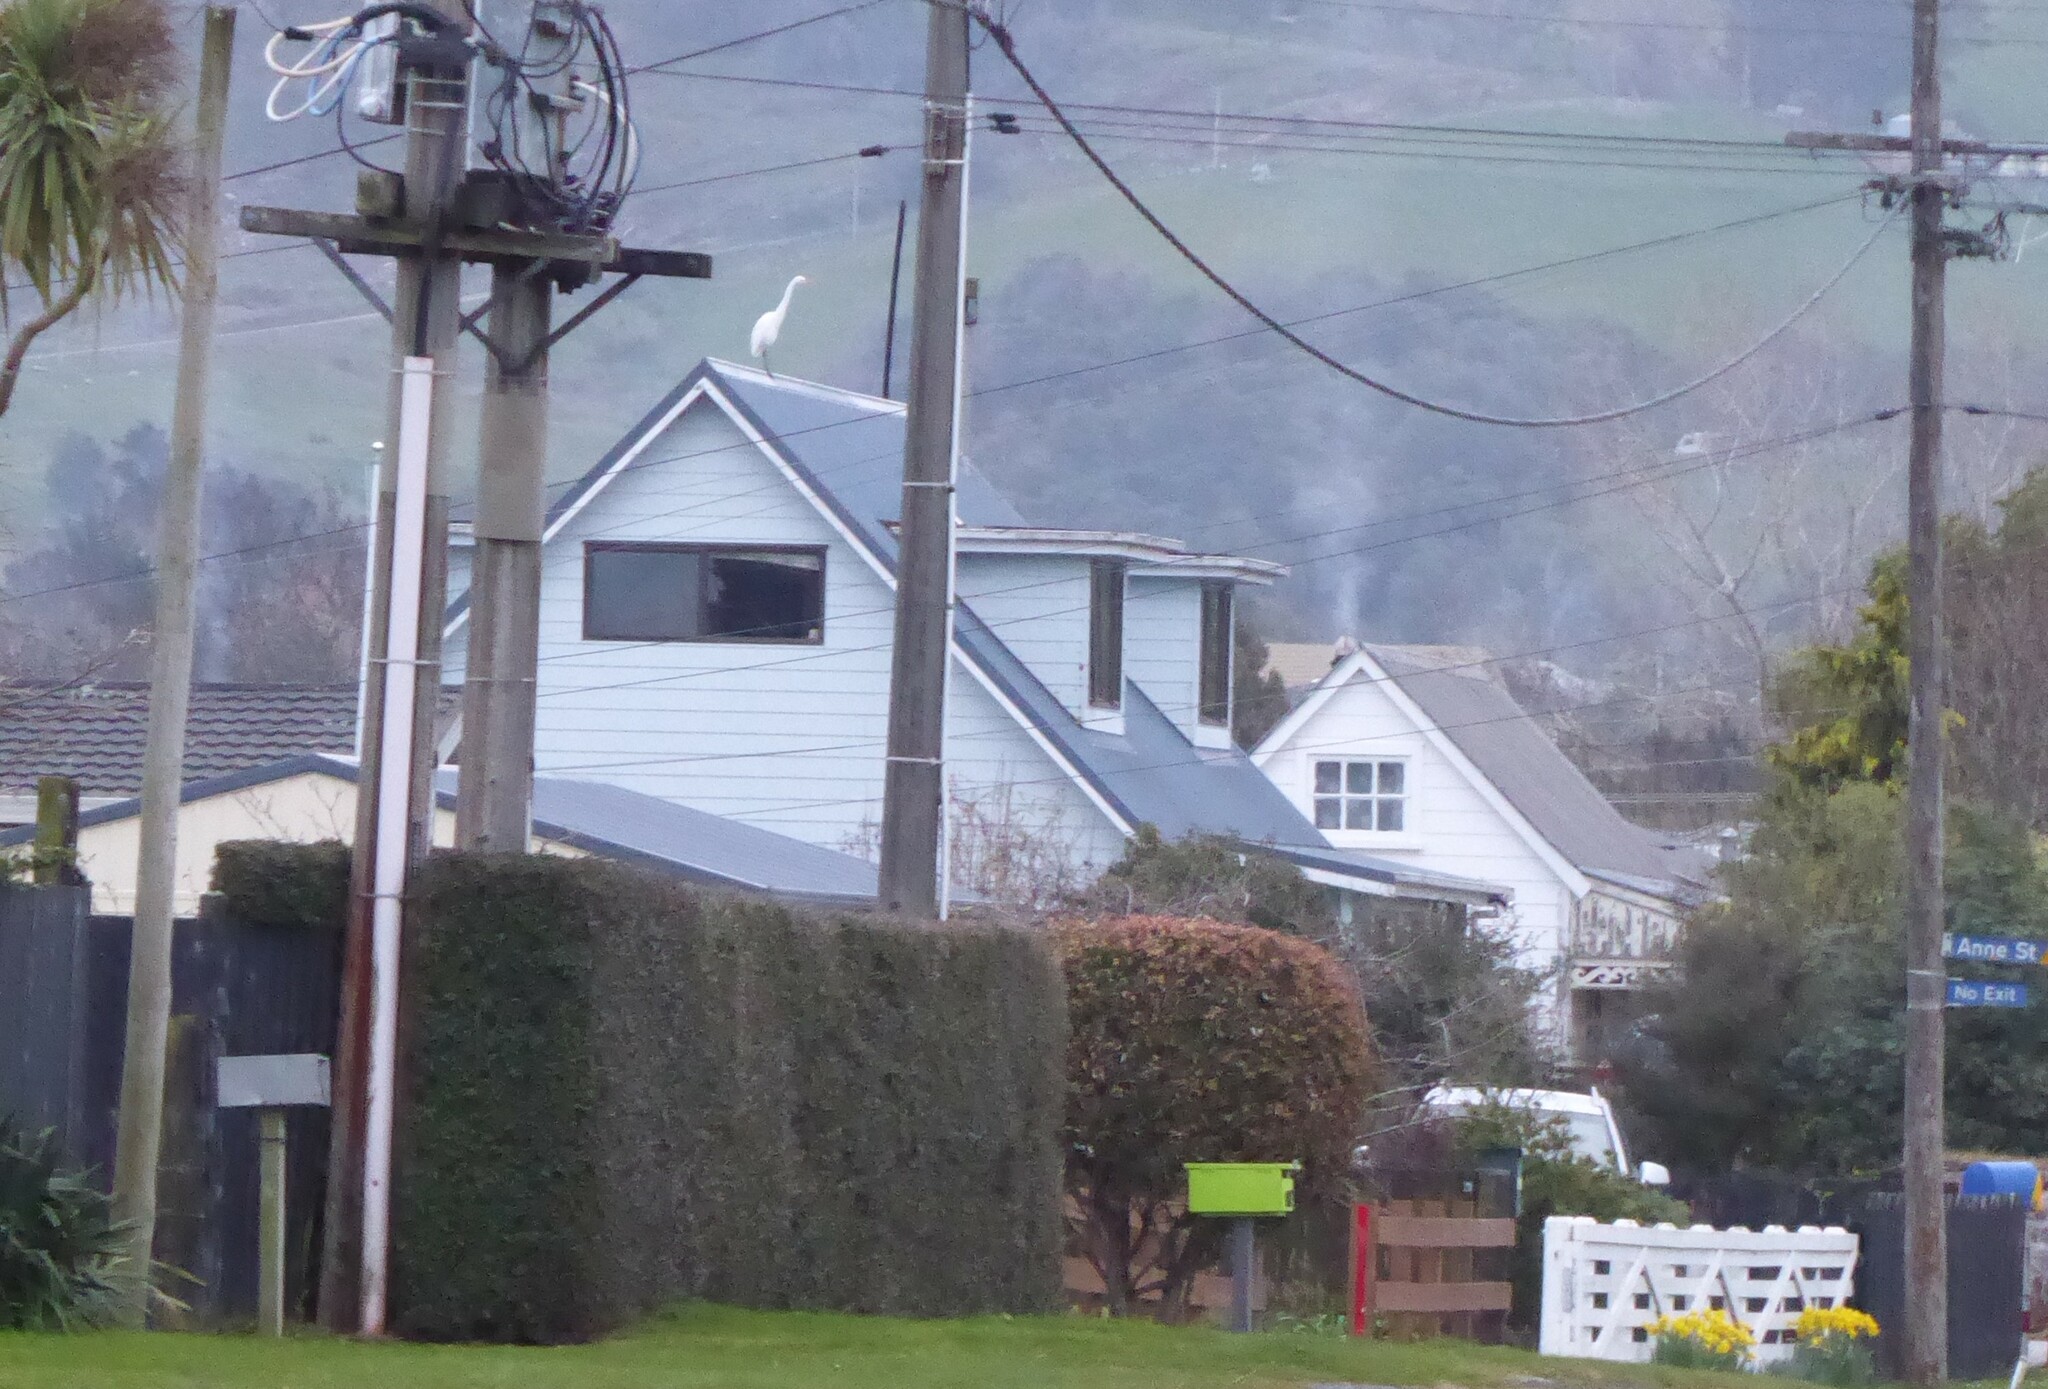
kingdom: Animalia
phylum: Chordata
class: Aves
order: Pelecaniformes
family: Ardeidae
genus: Ardea
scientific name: Ardea modesta
